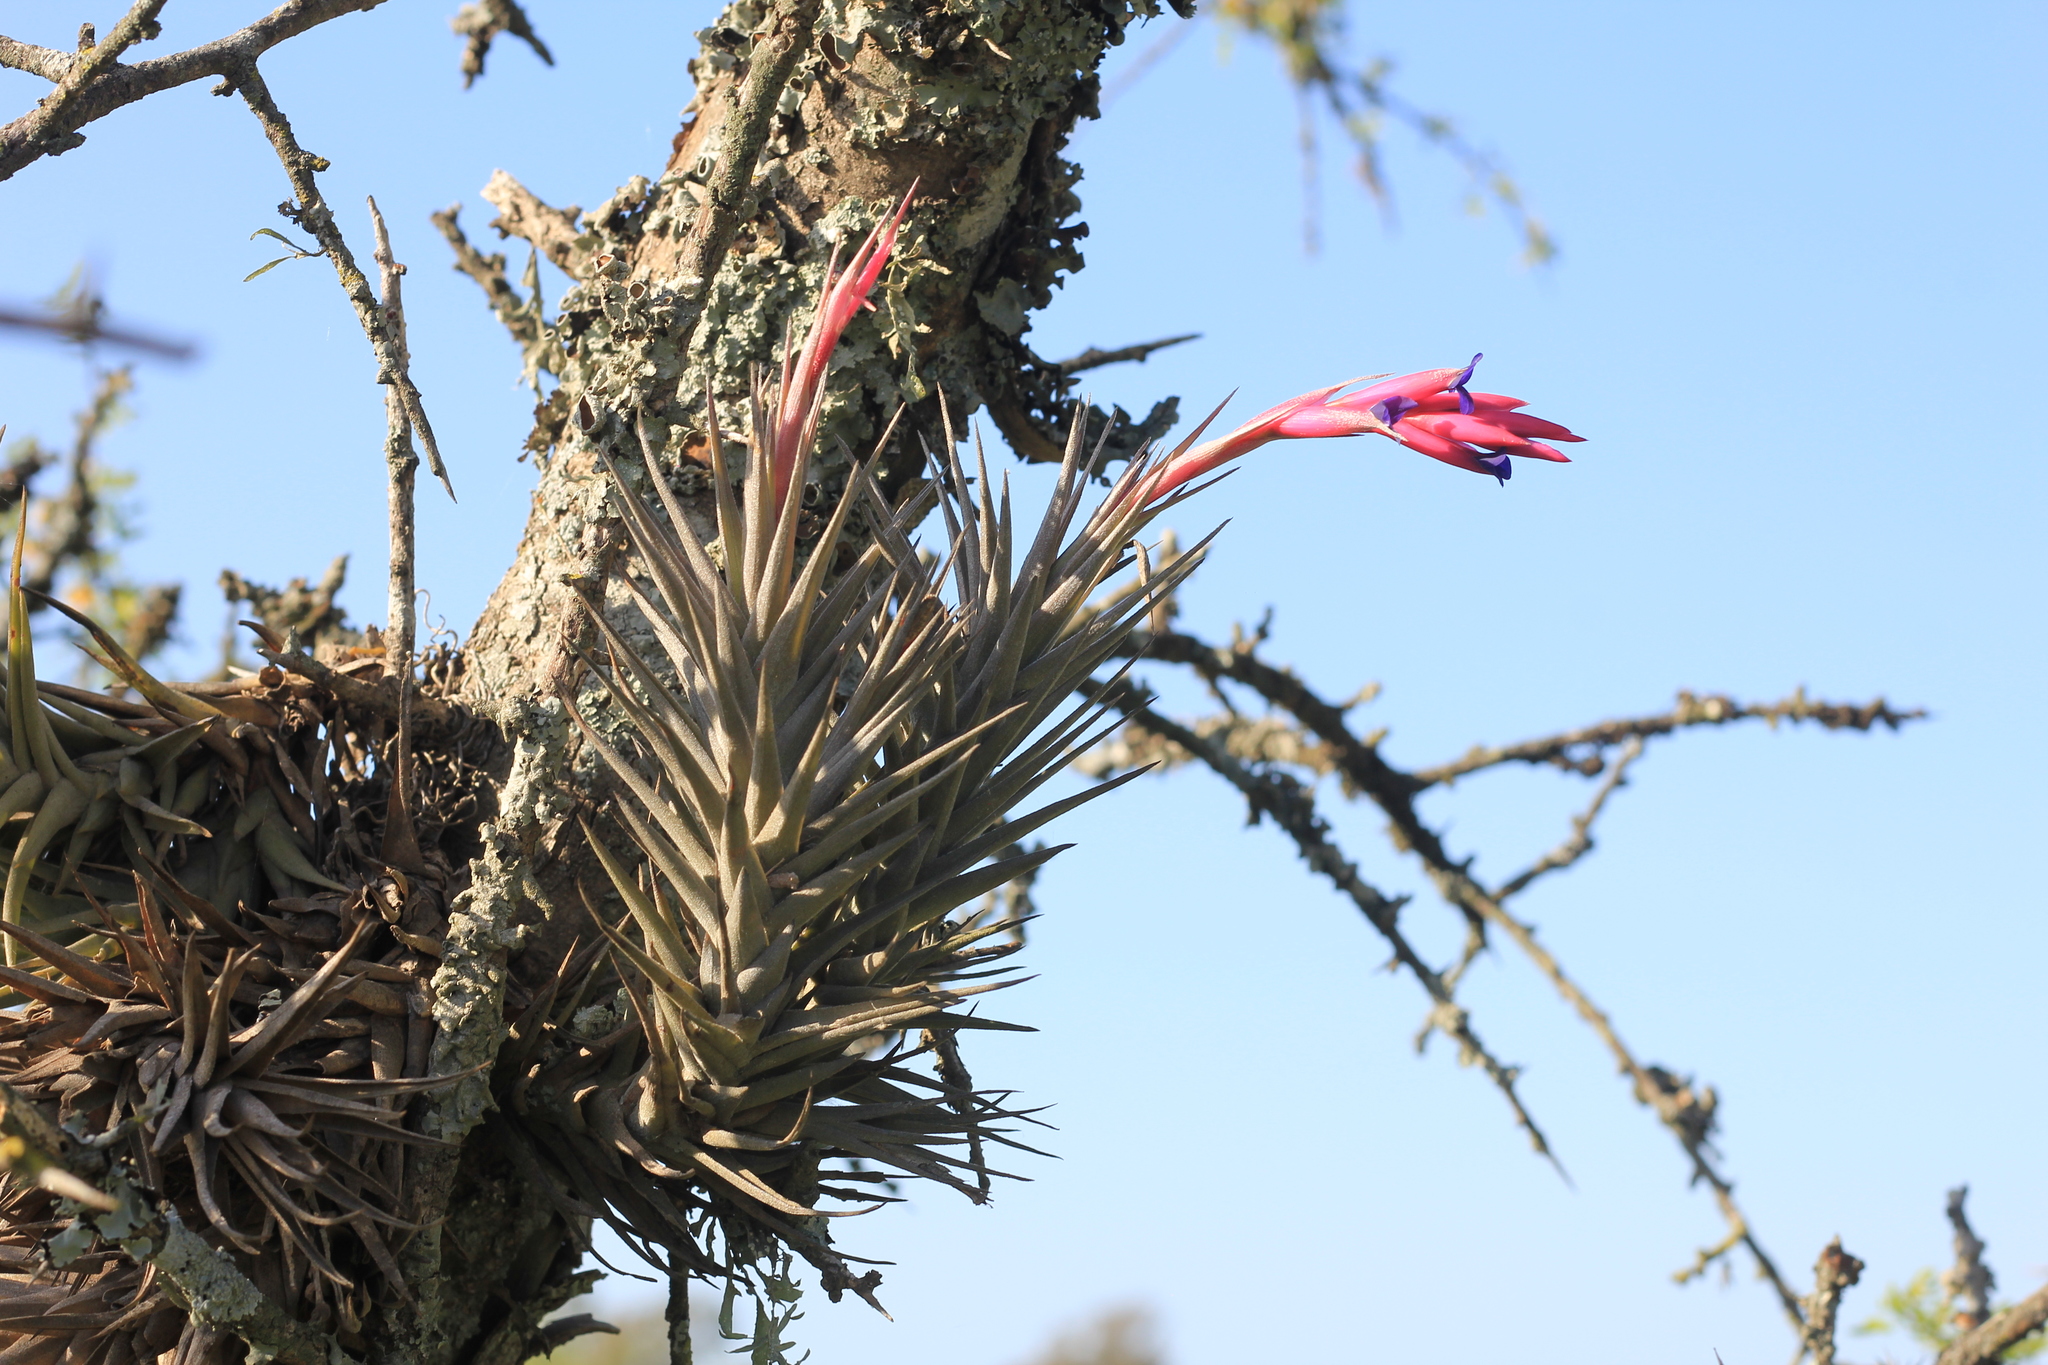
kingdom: Plantae
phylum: Tracheophyta
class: Liliopsida
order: Poales
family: Bromeliaceae
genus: Tillandsia
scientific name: Tillandsia aeranthos
